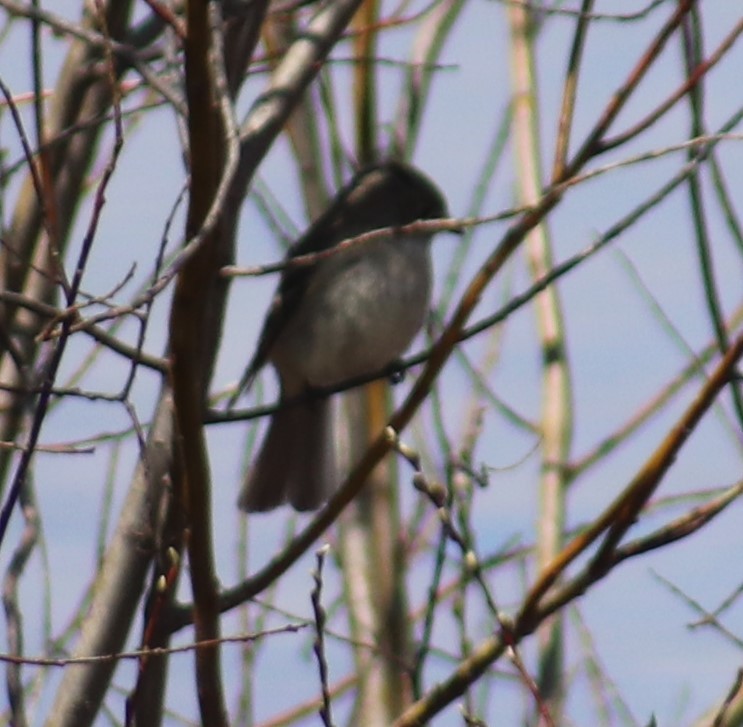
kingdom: Animalia
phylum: Chordata
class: Aves
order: Passeriformes
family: Tyrannidae
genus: Sayornis
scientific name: Sayornis phoebe
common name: Eastern phoebe
